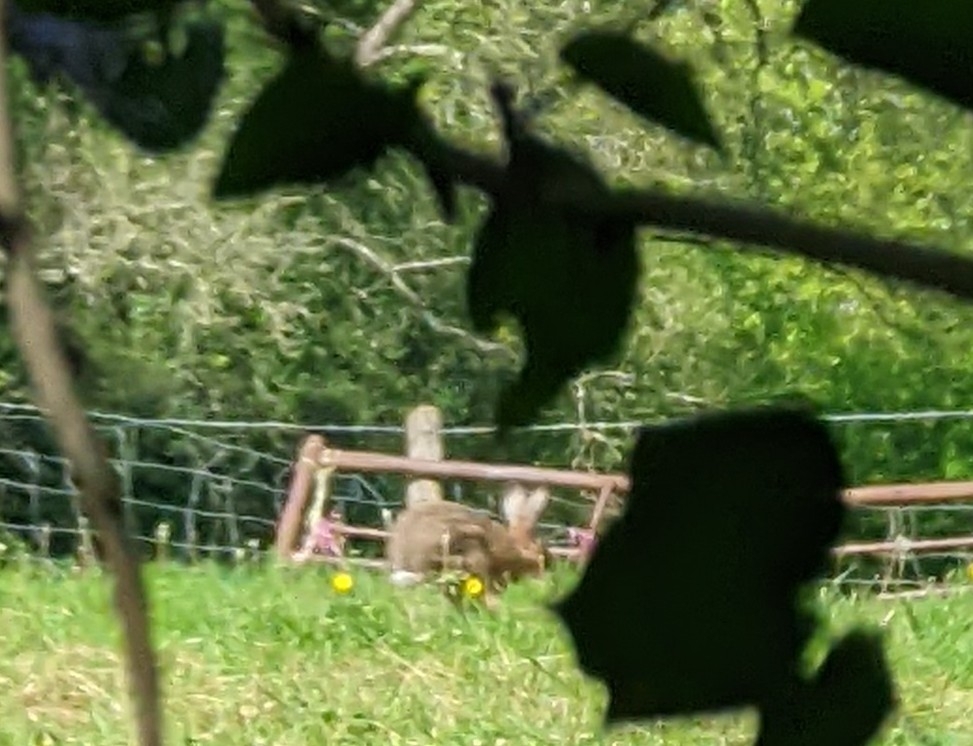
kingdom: Animalia
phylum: Chordata
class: Mammalia
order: Lagomorpha
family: Leporidae
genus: Lepus
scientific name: Lepus europaeus
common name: European hare
